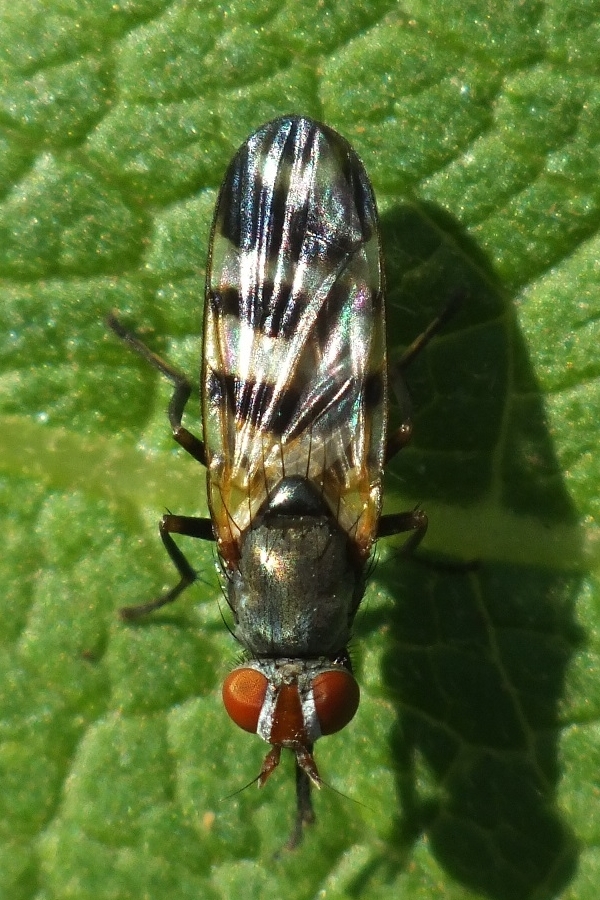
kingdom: Animalia
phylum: Arthropoda
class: Insecta
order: Diptera
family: Ulidiidae
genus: Ceroxys
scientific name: Ceroxys urticae
